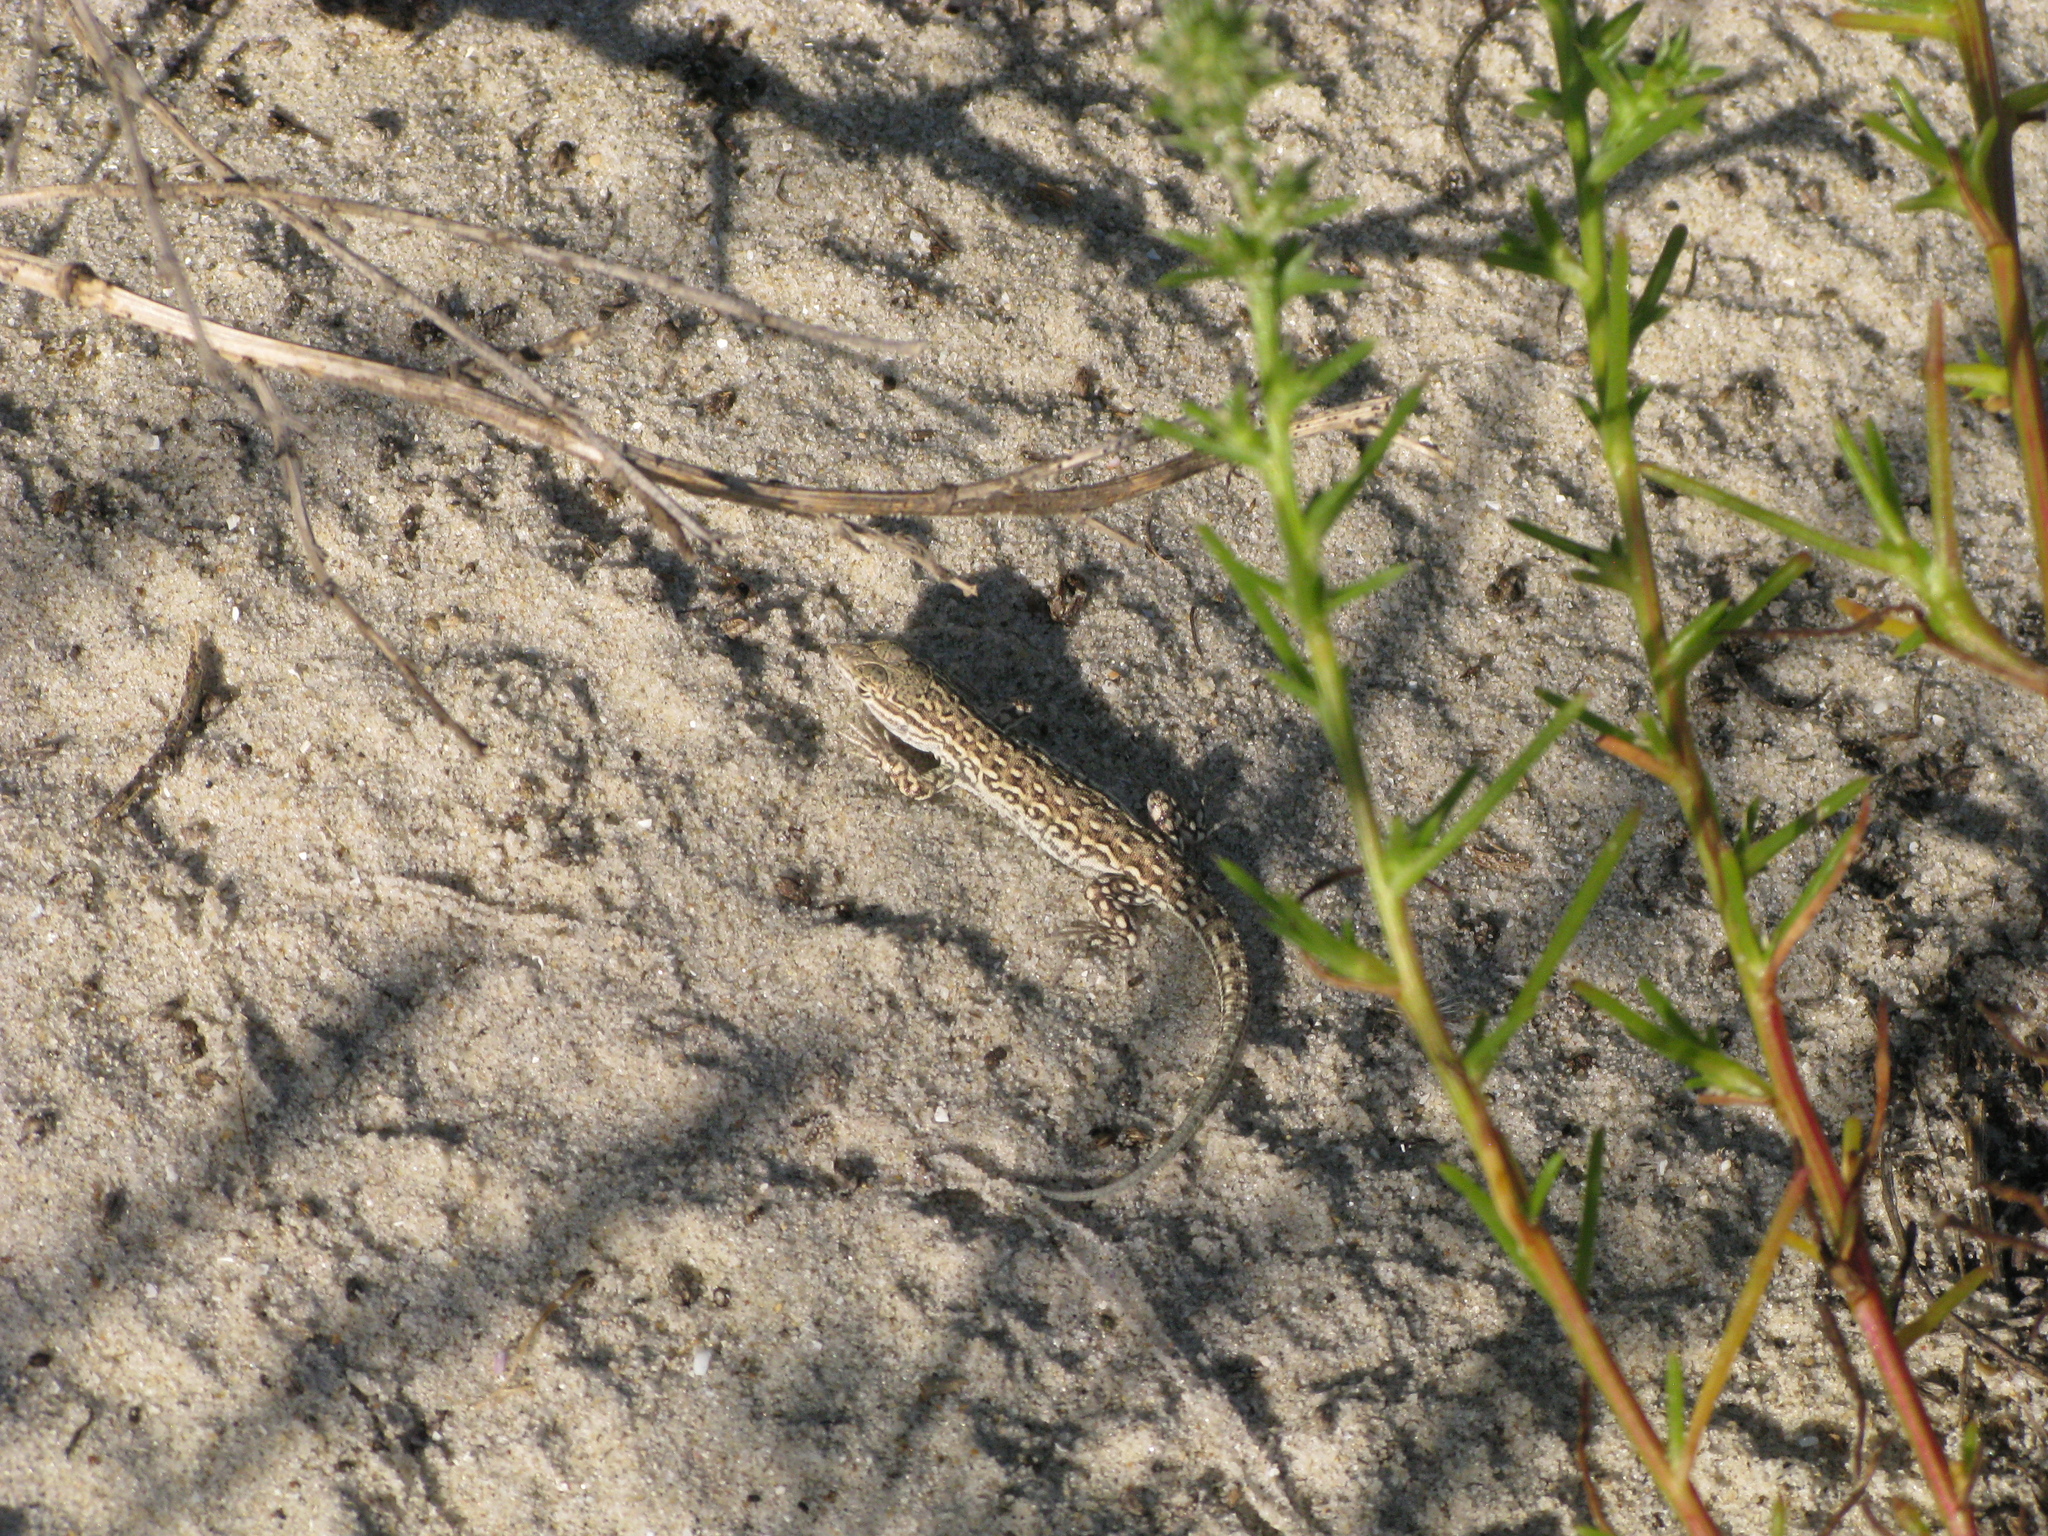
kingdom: Animalia
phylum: Chordata
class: Squamata
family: Lacertidae
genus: Eremias
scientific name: Eremias arguta
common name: Racerunner
